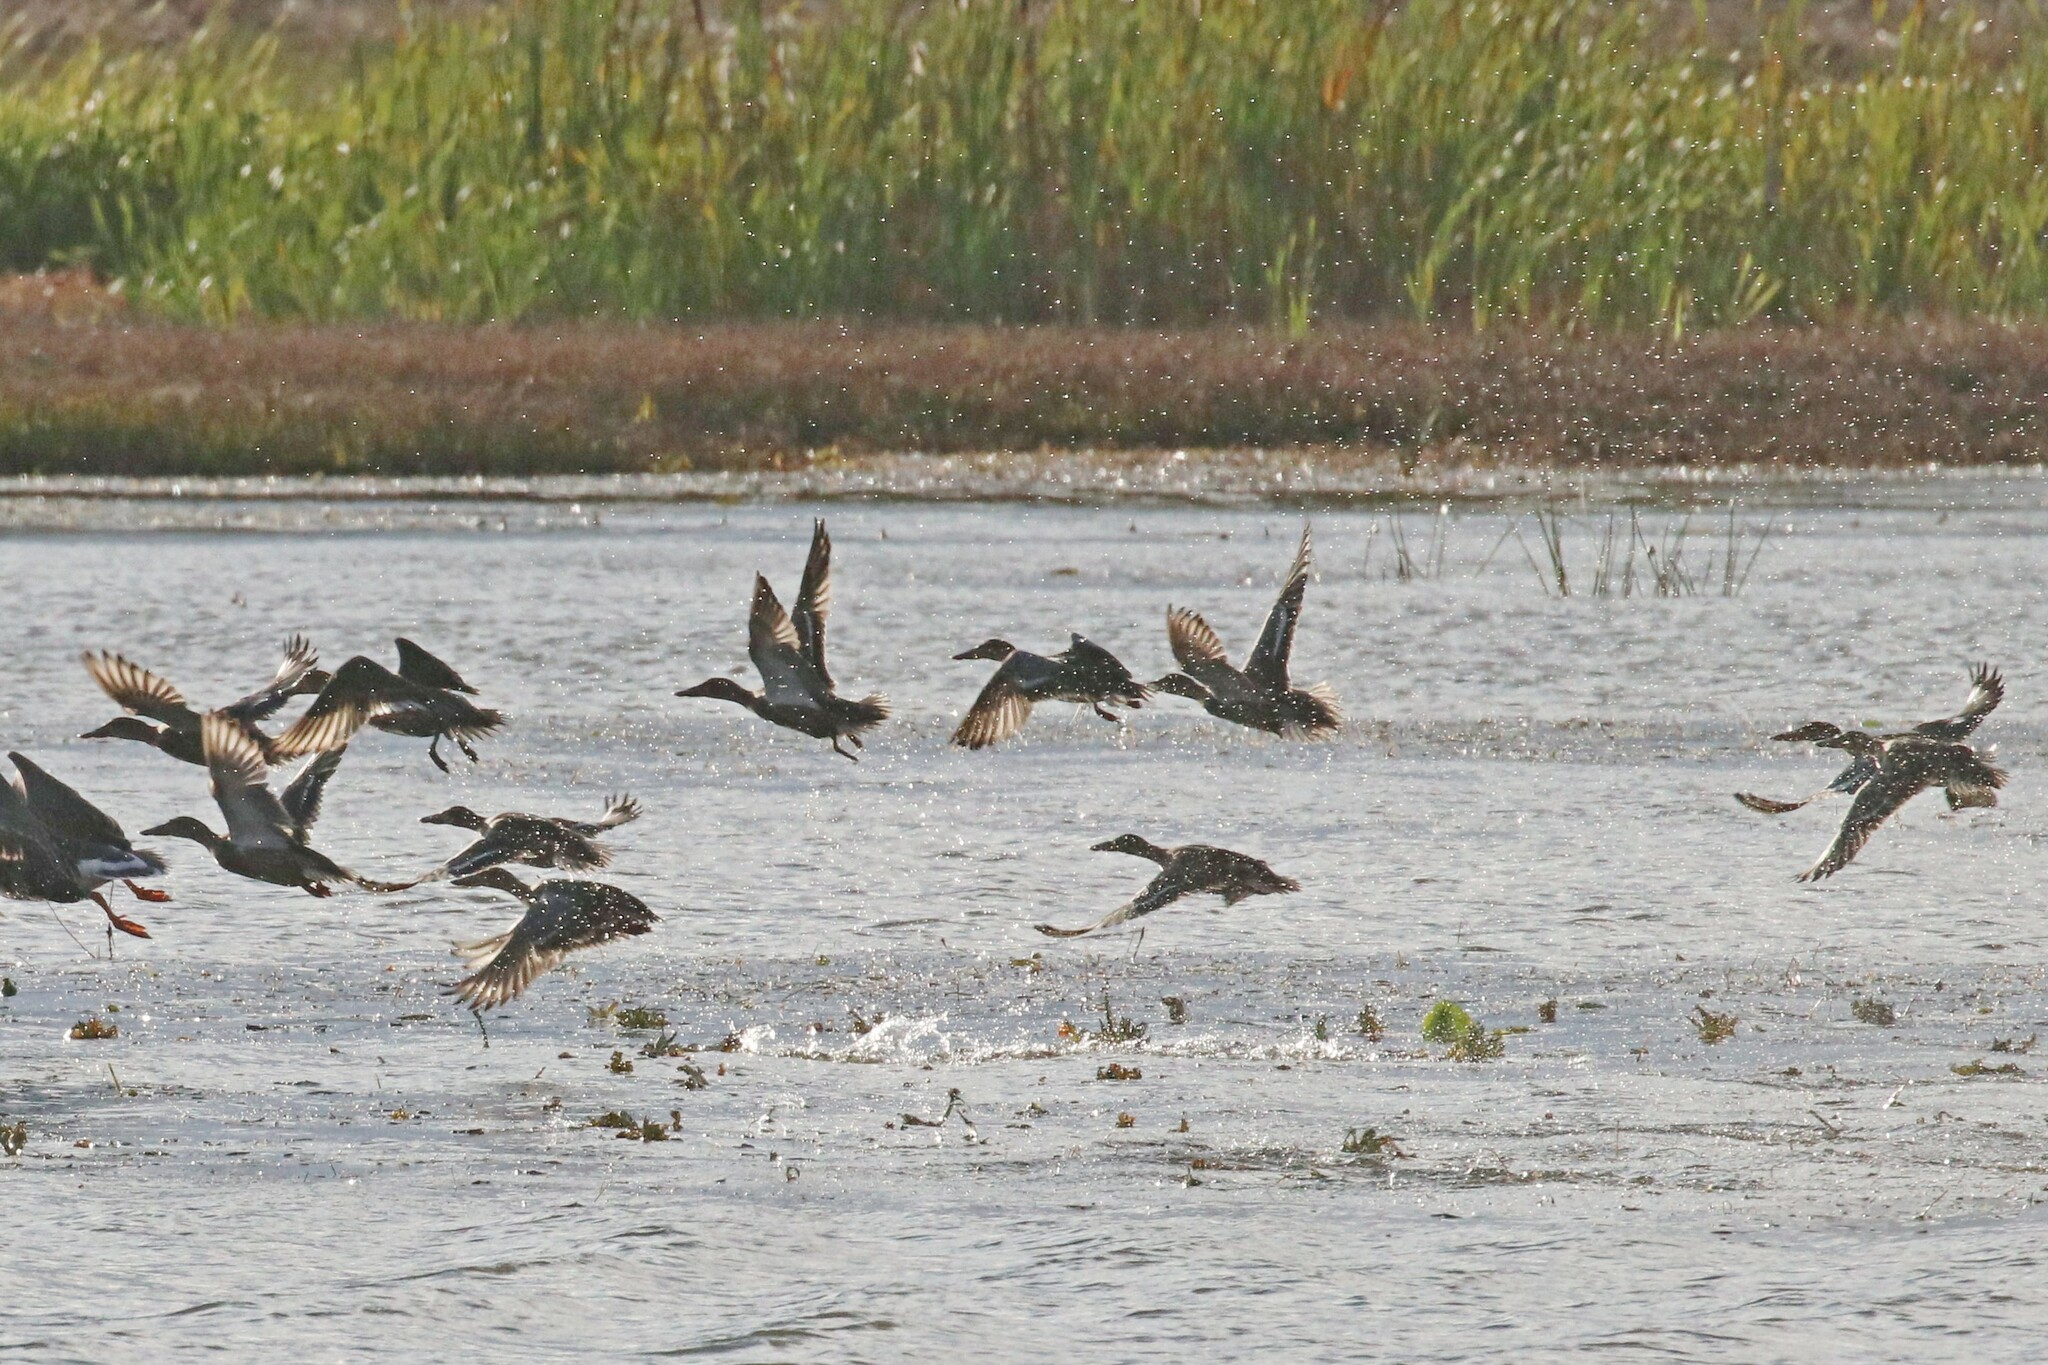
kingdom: Animalia
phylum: Chordata
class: Aves
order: Anseriformes
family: Anatidae
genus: Spatula
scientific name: Spatula clypeata
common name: Northern shoveler
